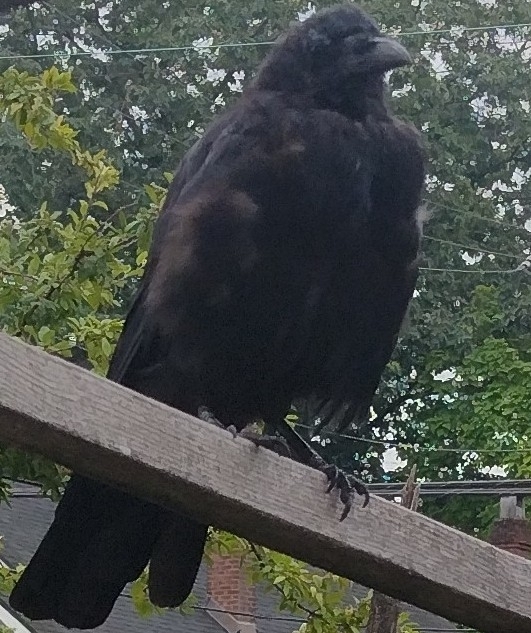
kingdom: Animalia
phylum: Chordata
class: Aves
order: Passeriformes
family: Corvidae
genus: Corvus
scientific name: Corvus brachyrhynchos
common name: American crow
